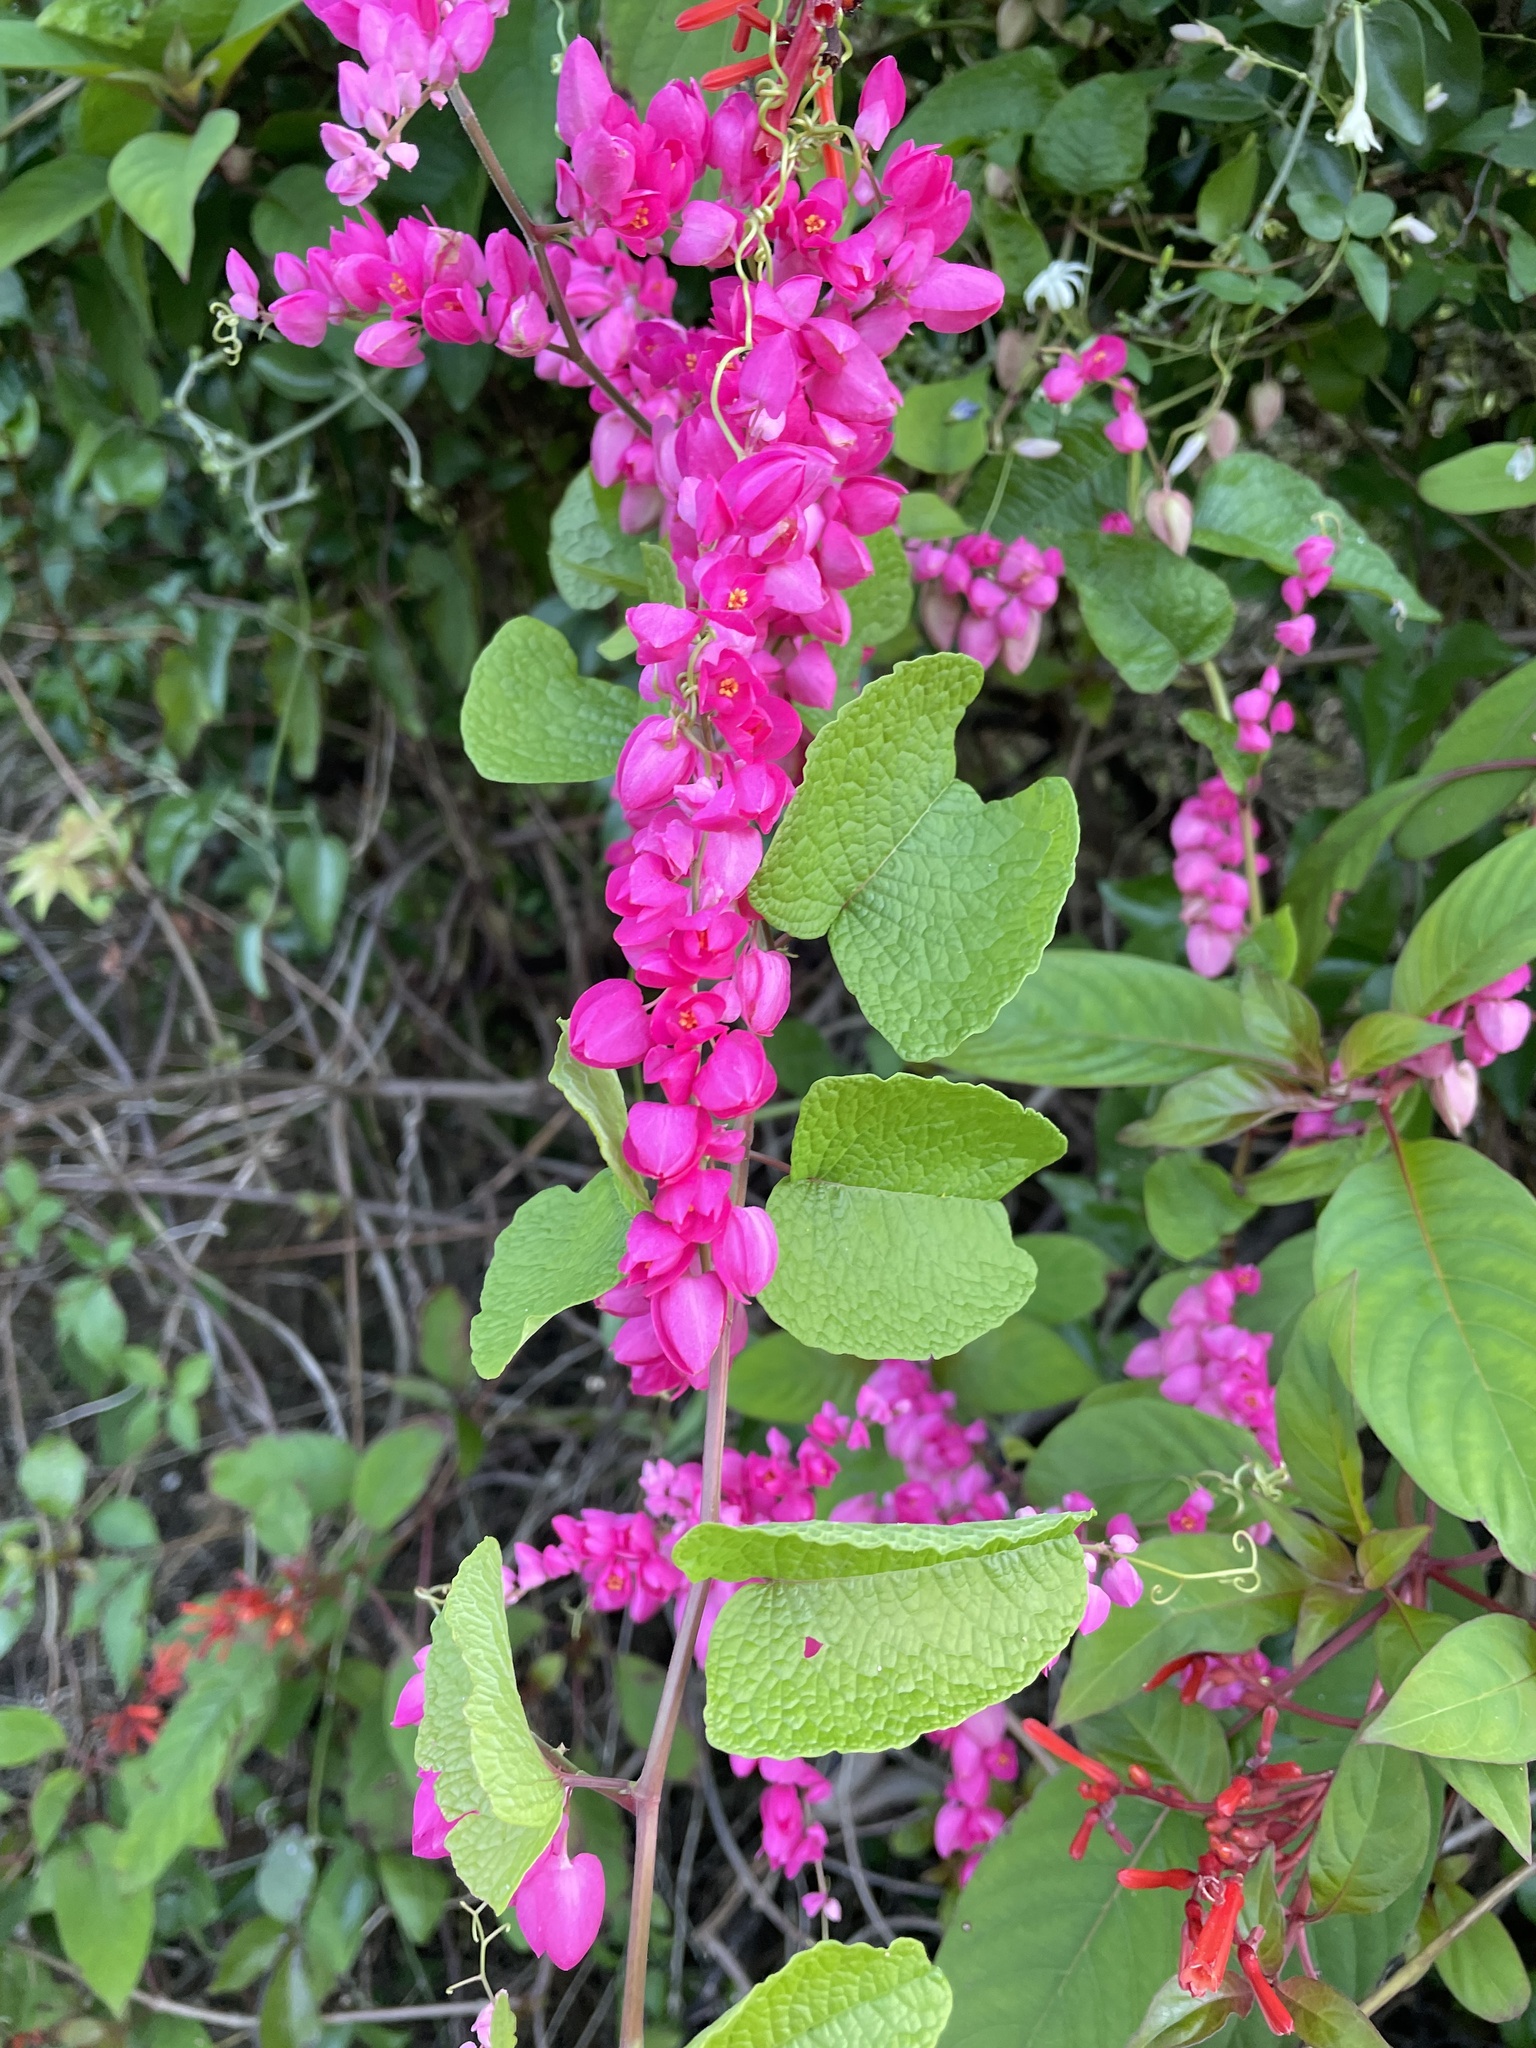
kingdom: Plantae
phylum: Tracheophyta
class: Magnoliopsida
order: Caryophyllales
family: Polygonaceae
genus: Antigonon
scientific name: Antigonon leptopus
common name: Coral vine
